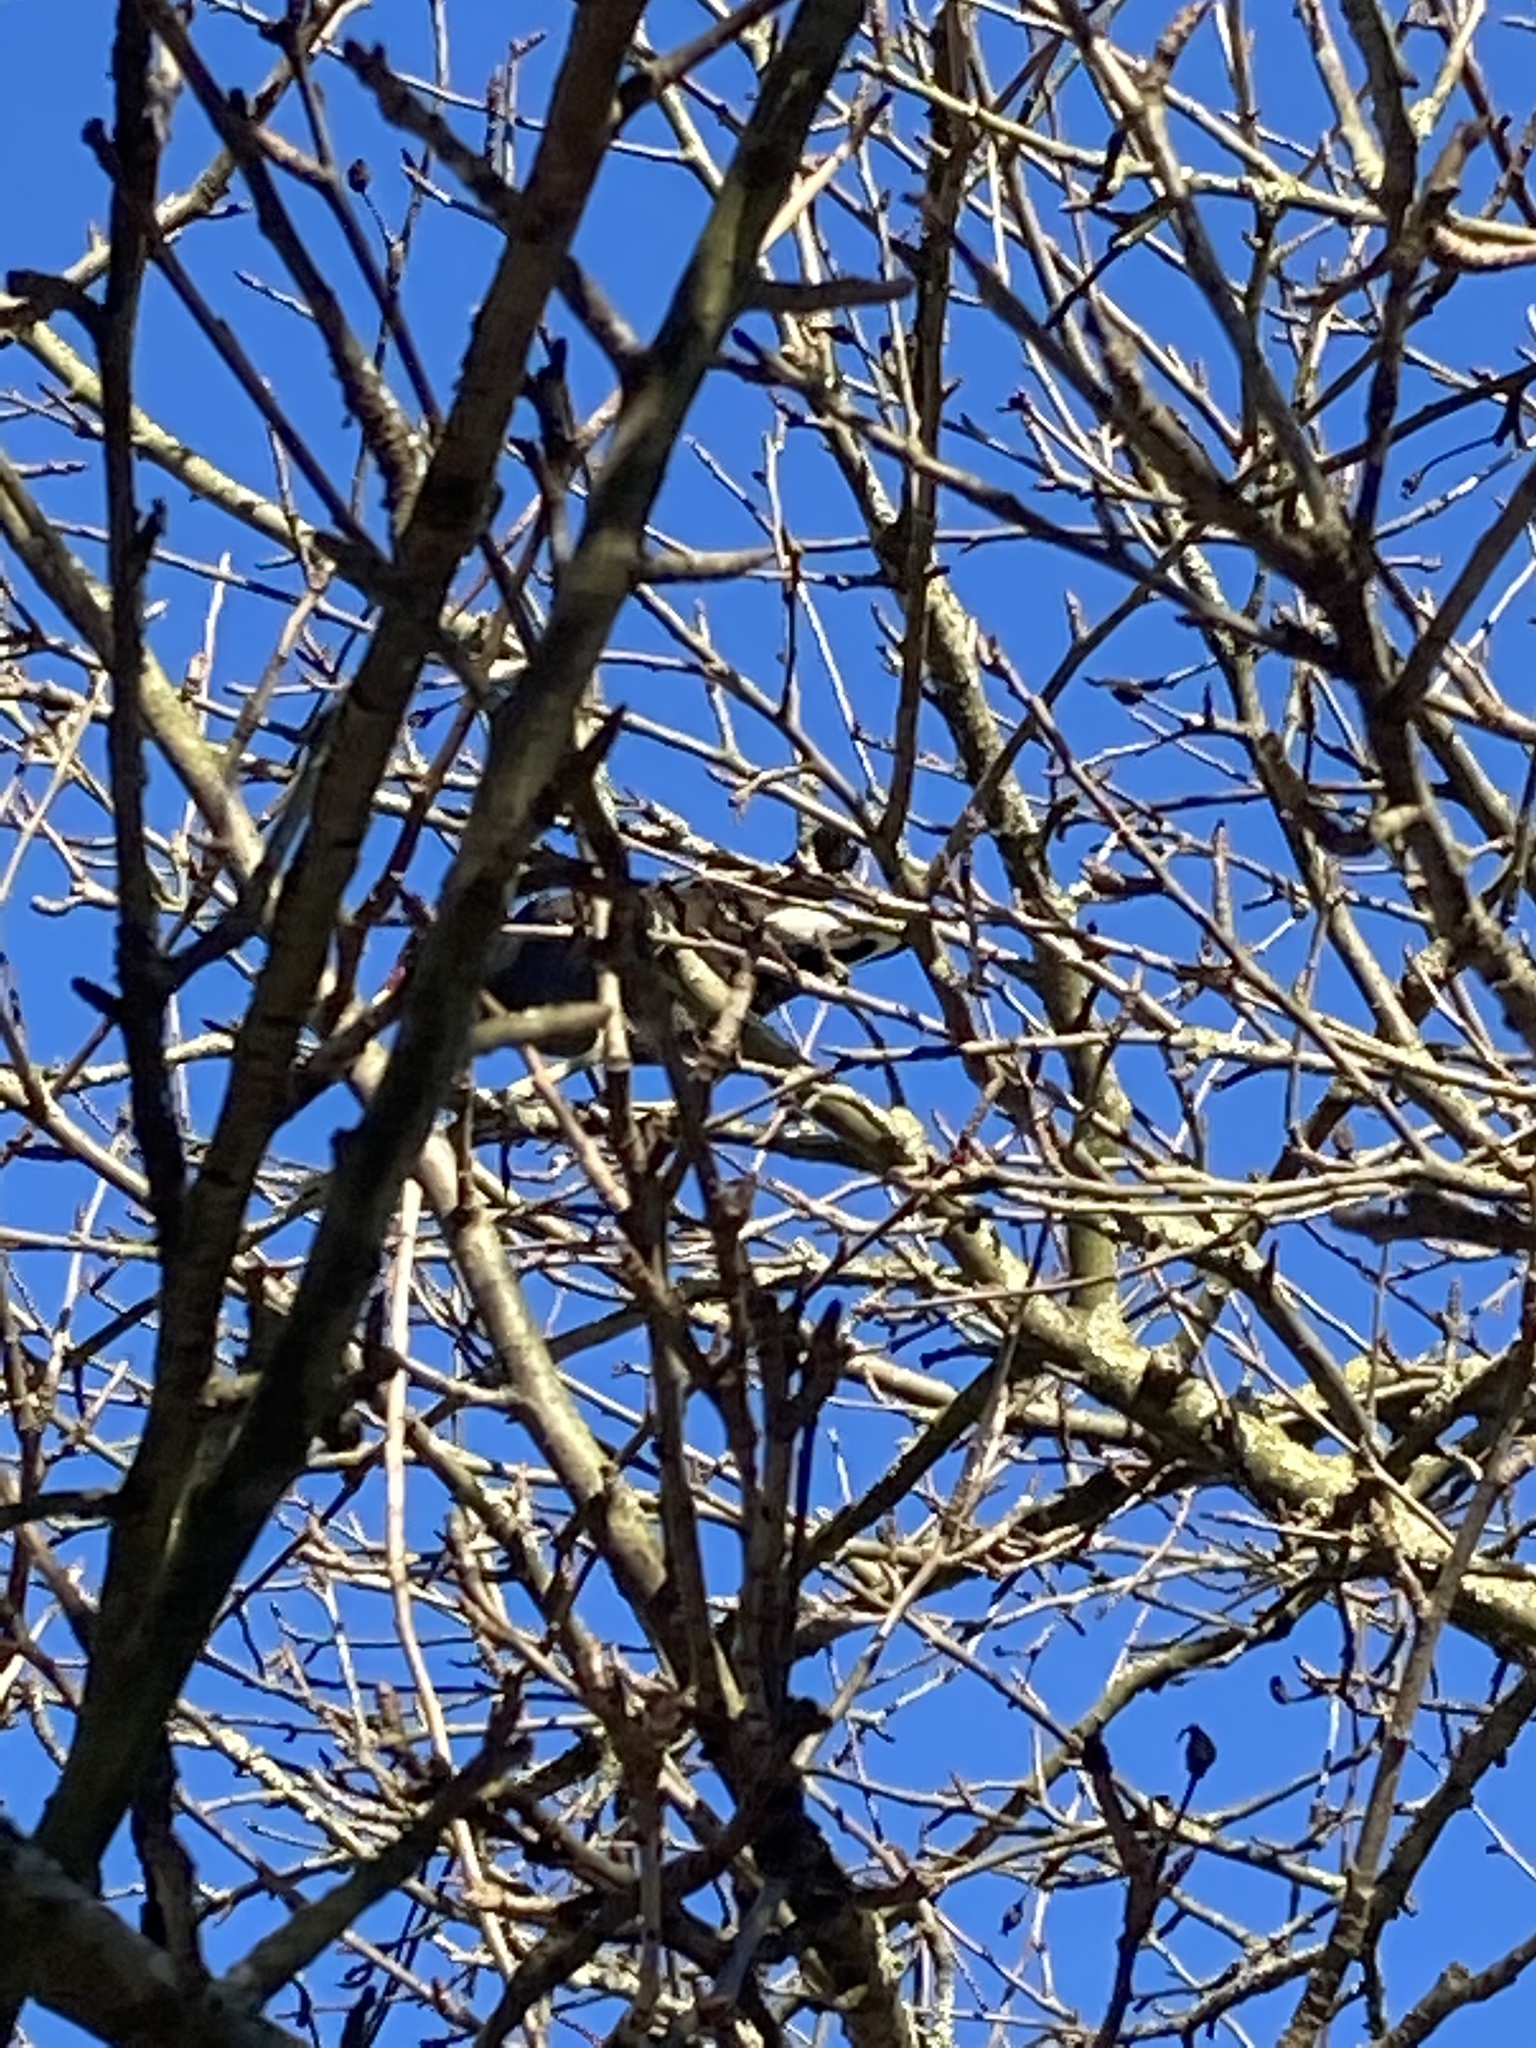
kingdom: Animalia
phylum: Chordata
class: Aves
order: Gruiformes
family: Rallidae
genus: Gallinula
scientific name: Gallinula chloropus
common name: Common moorhen
